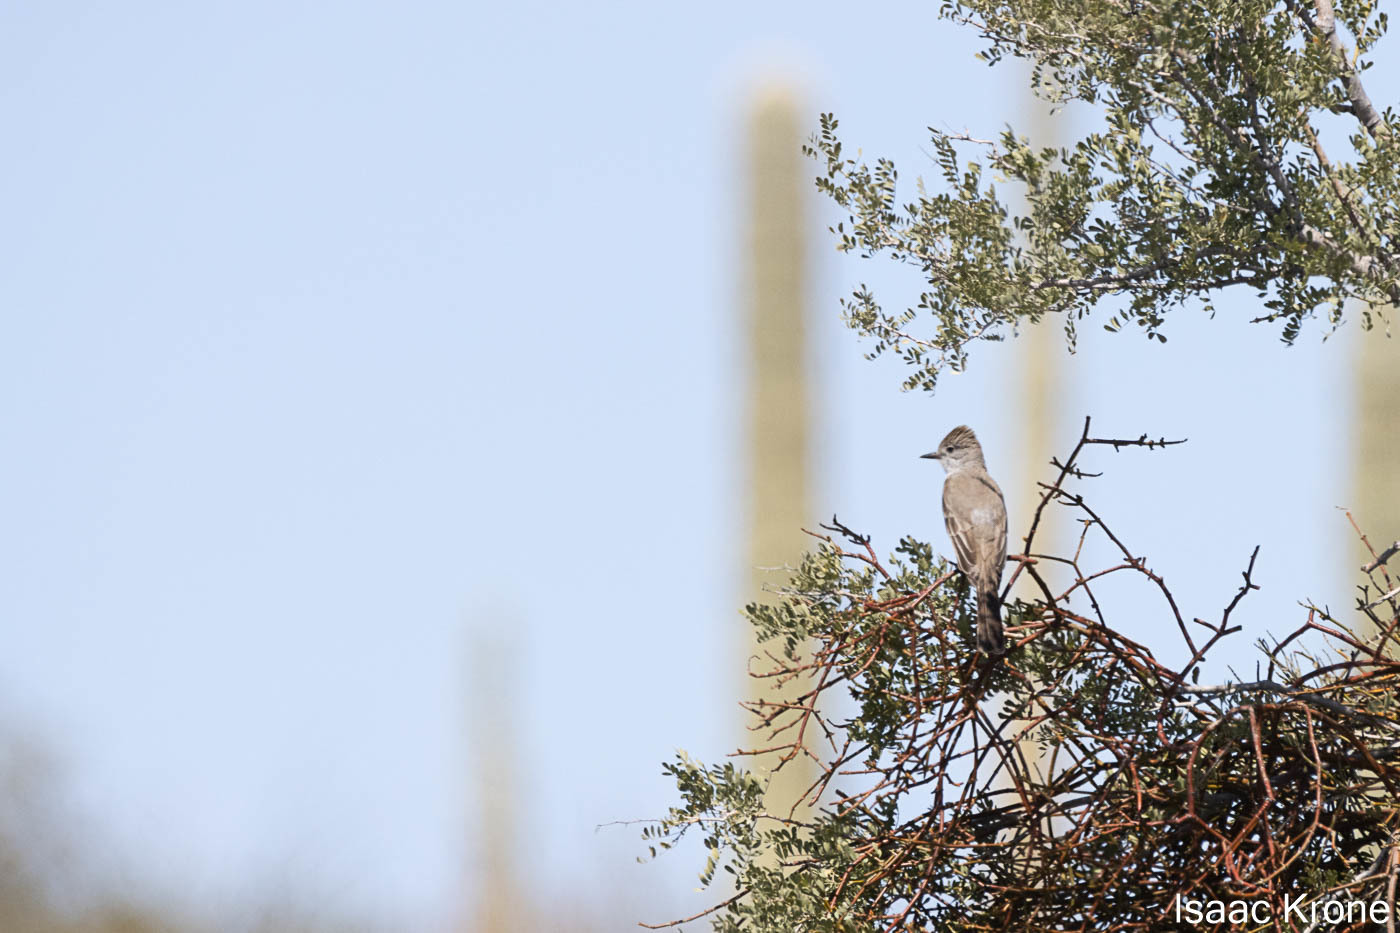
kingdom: Animalia
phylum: Chordata
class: Aves
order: Passeriformes
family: Tyrannidae
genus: Myiarchus
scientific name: Myiarchus cinerascens
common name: Ash-throated flycatcher
